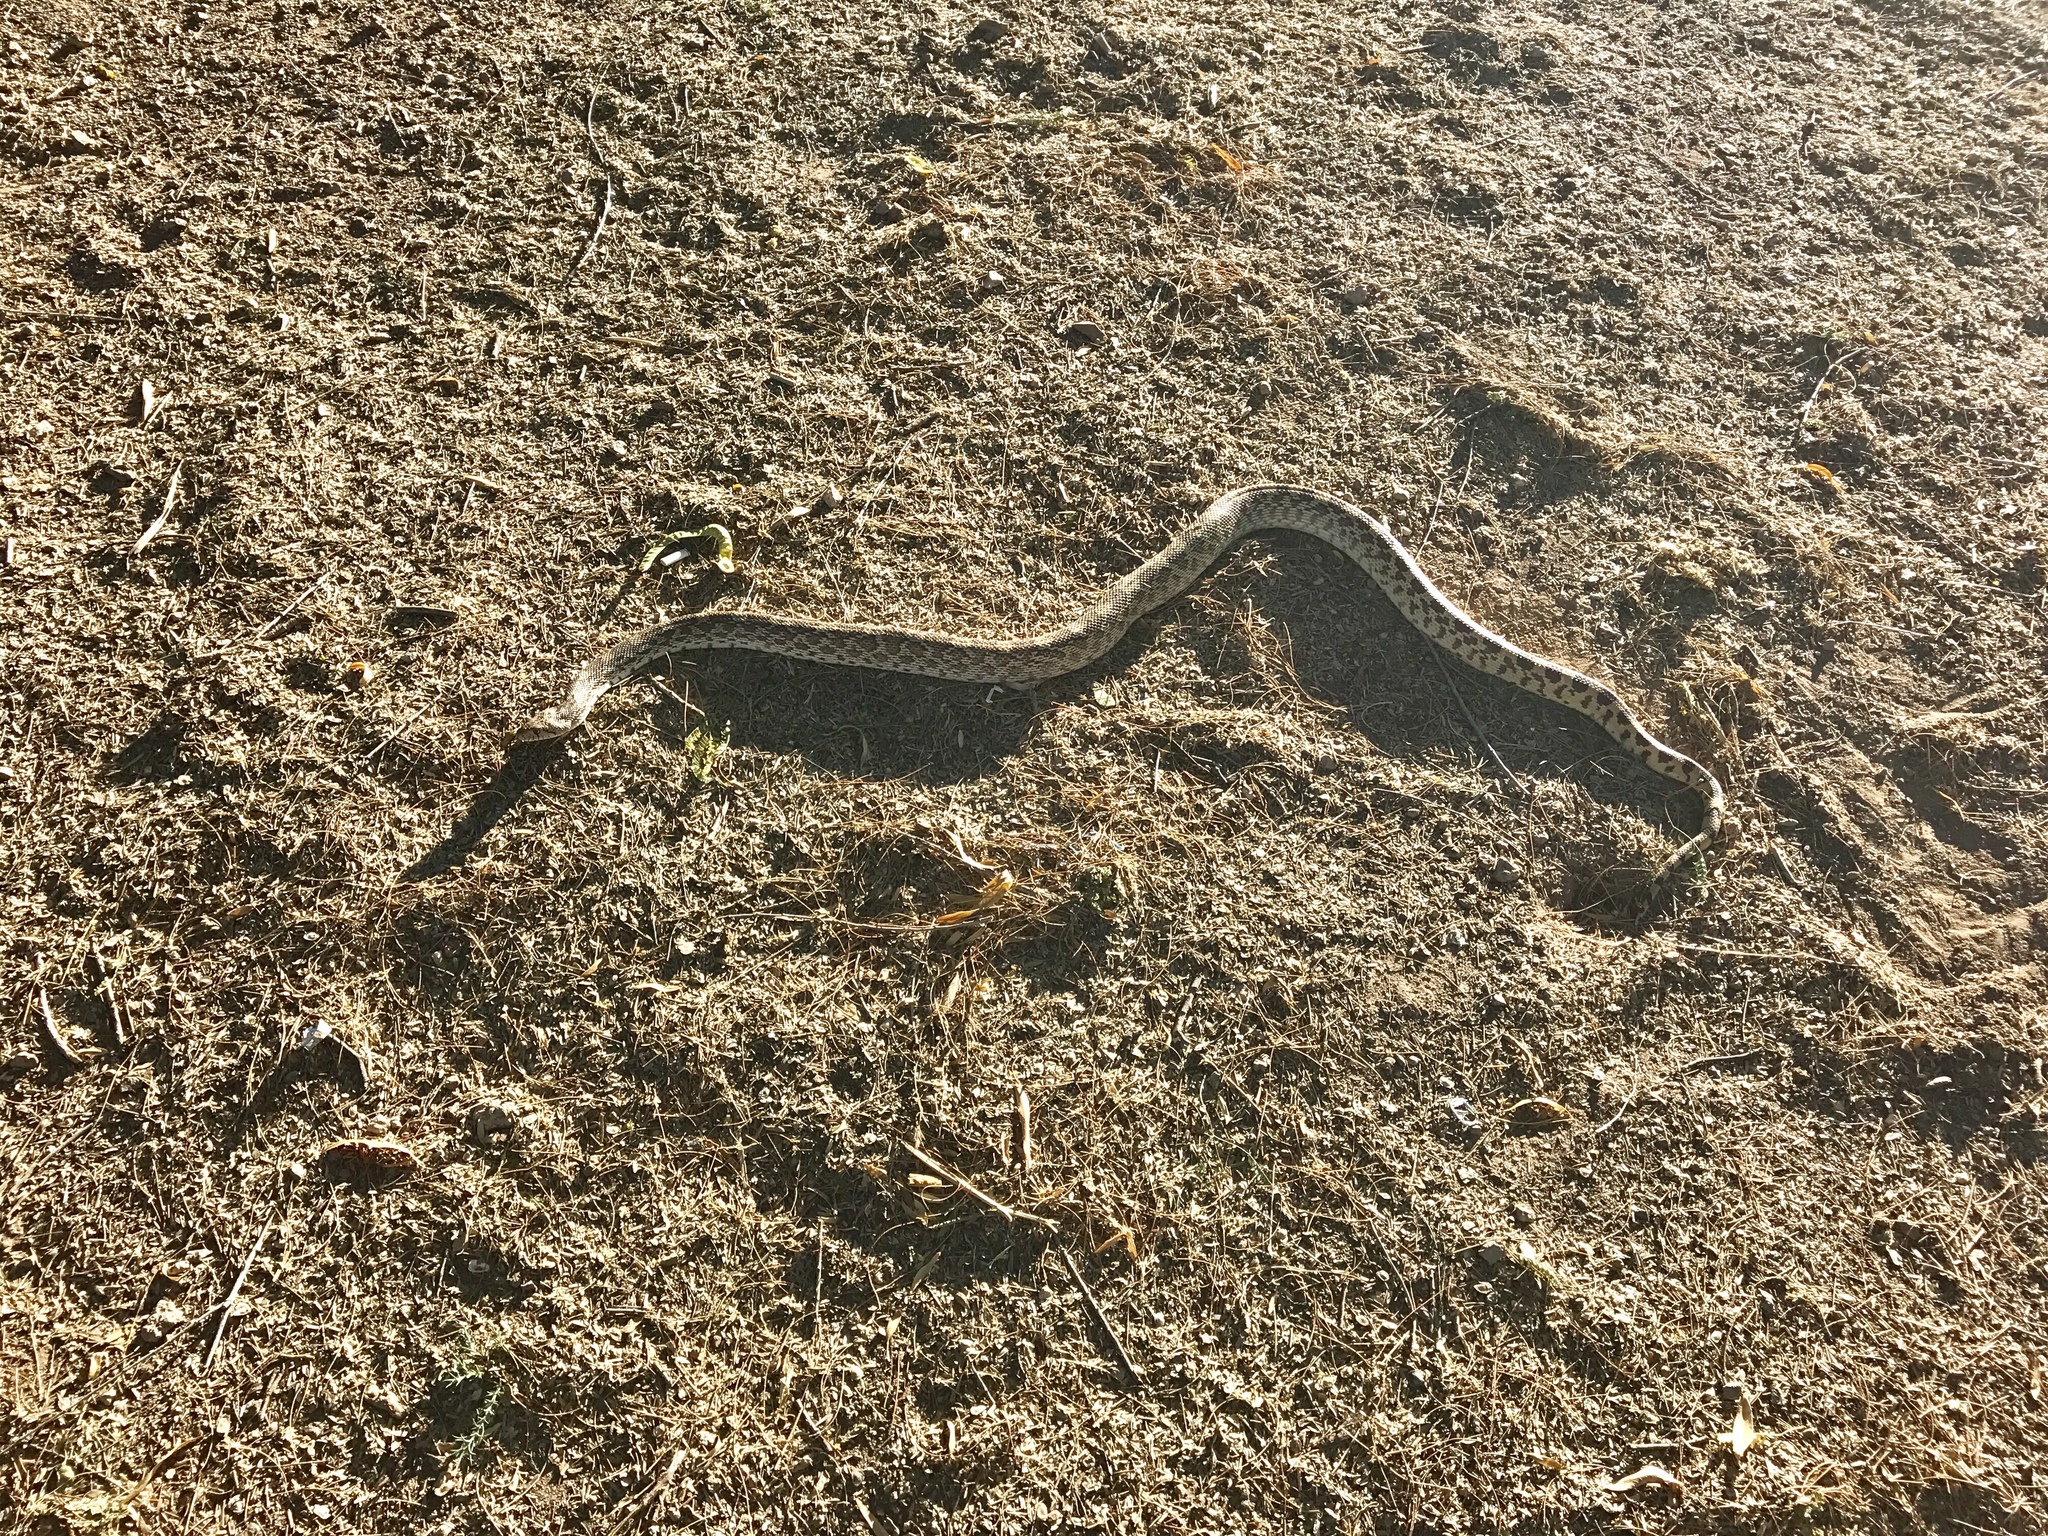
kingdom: Animalia
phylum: Chordata
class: Squamata
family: Colubridae
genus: Pituophis
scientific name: Pituophis catenifer
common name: Gopher snake
